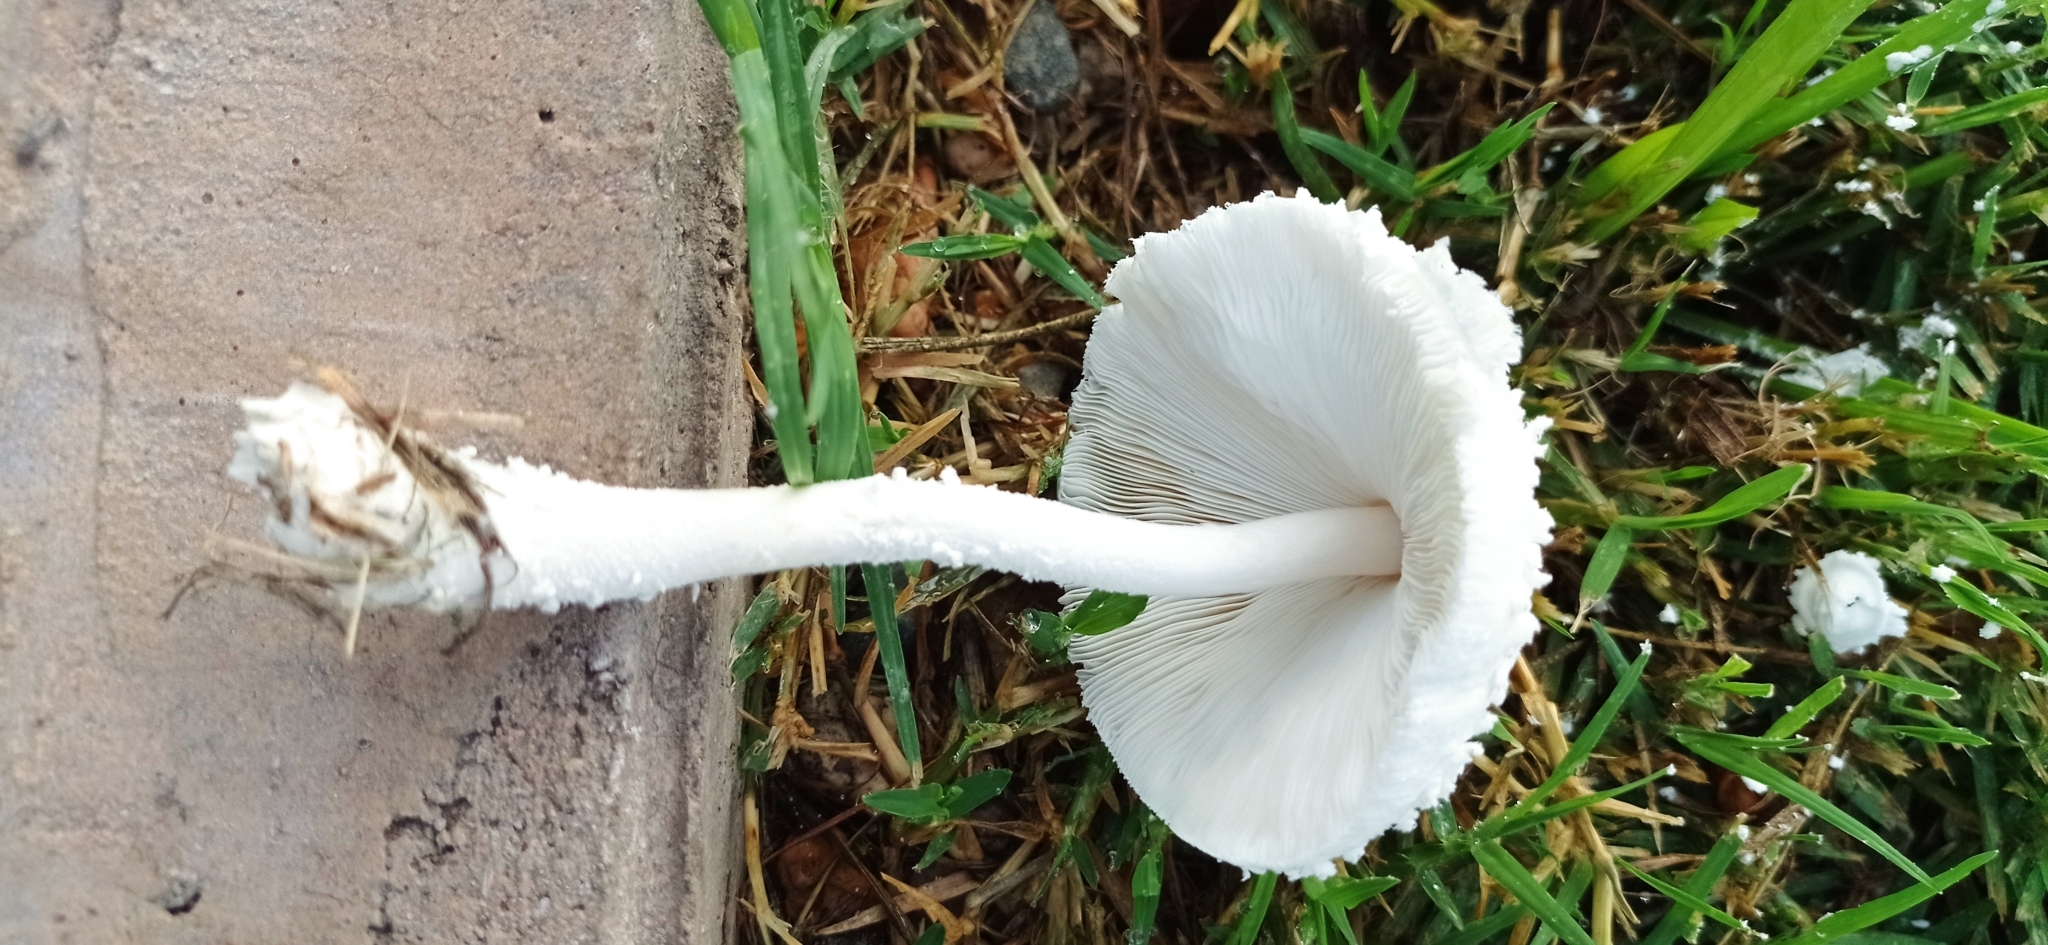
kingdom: Fungi
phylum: Basidiomycota
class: Agaricomycetes
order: Agaricales
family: Agaricaceae
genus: Leucocoprinus
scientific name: Leucocoprinus cretaceus
